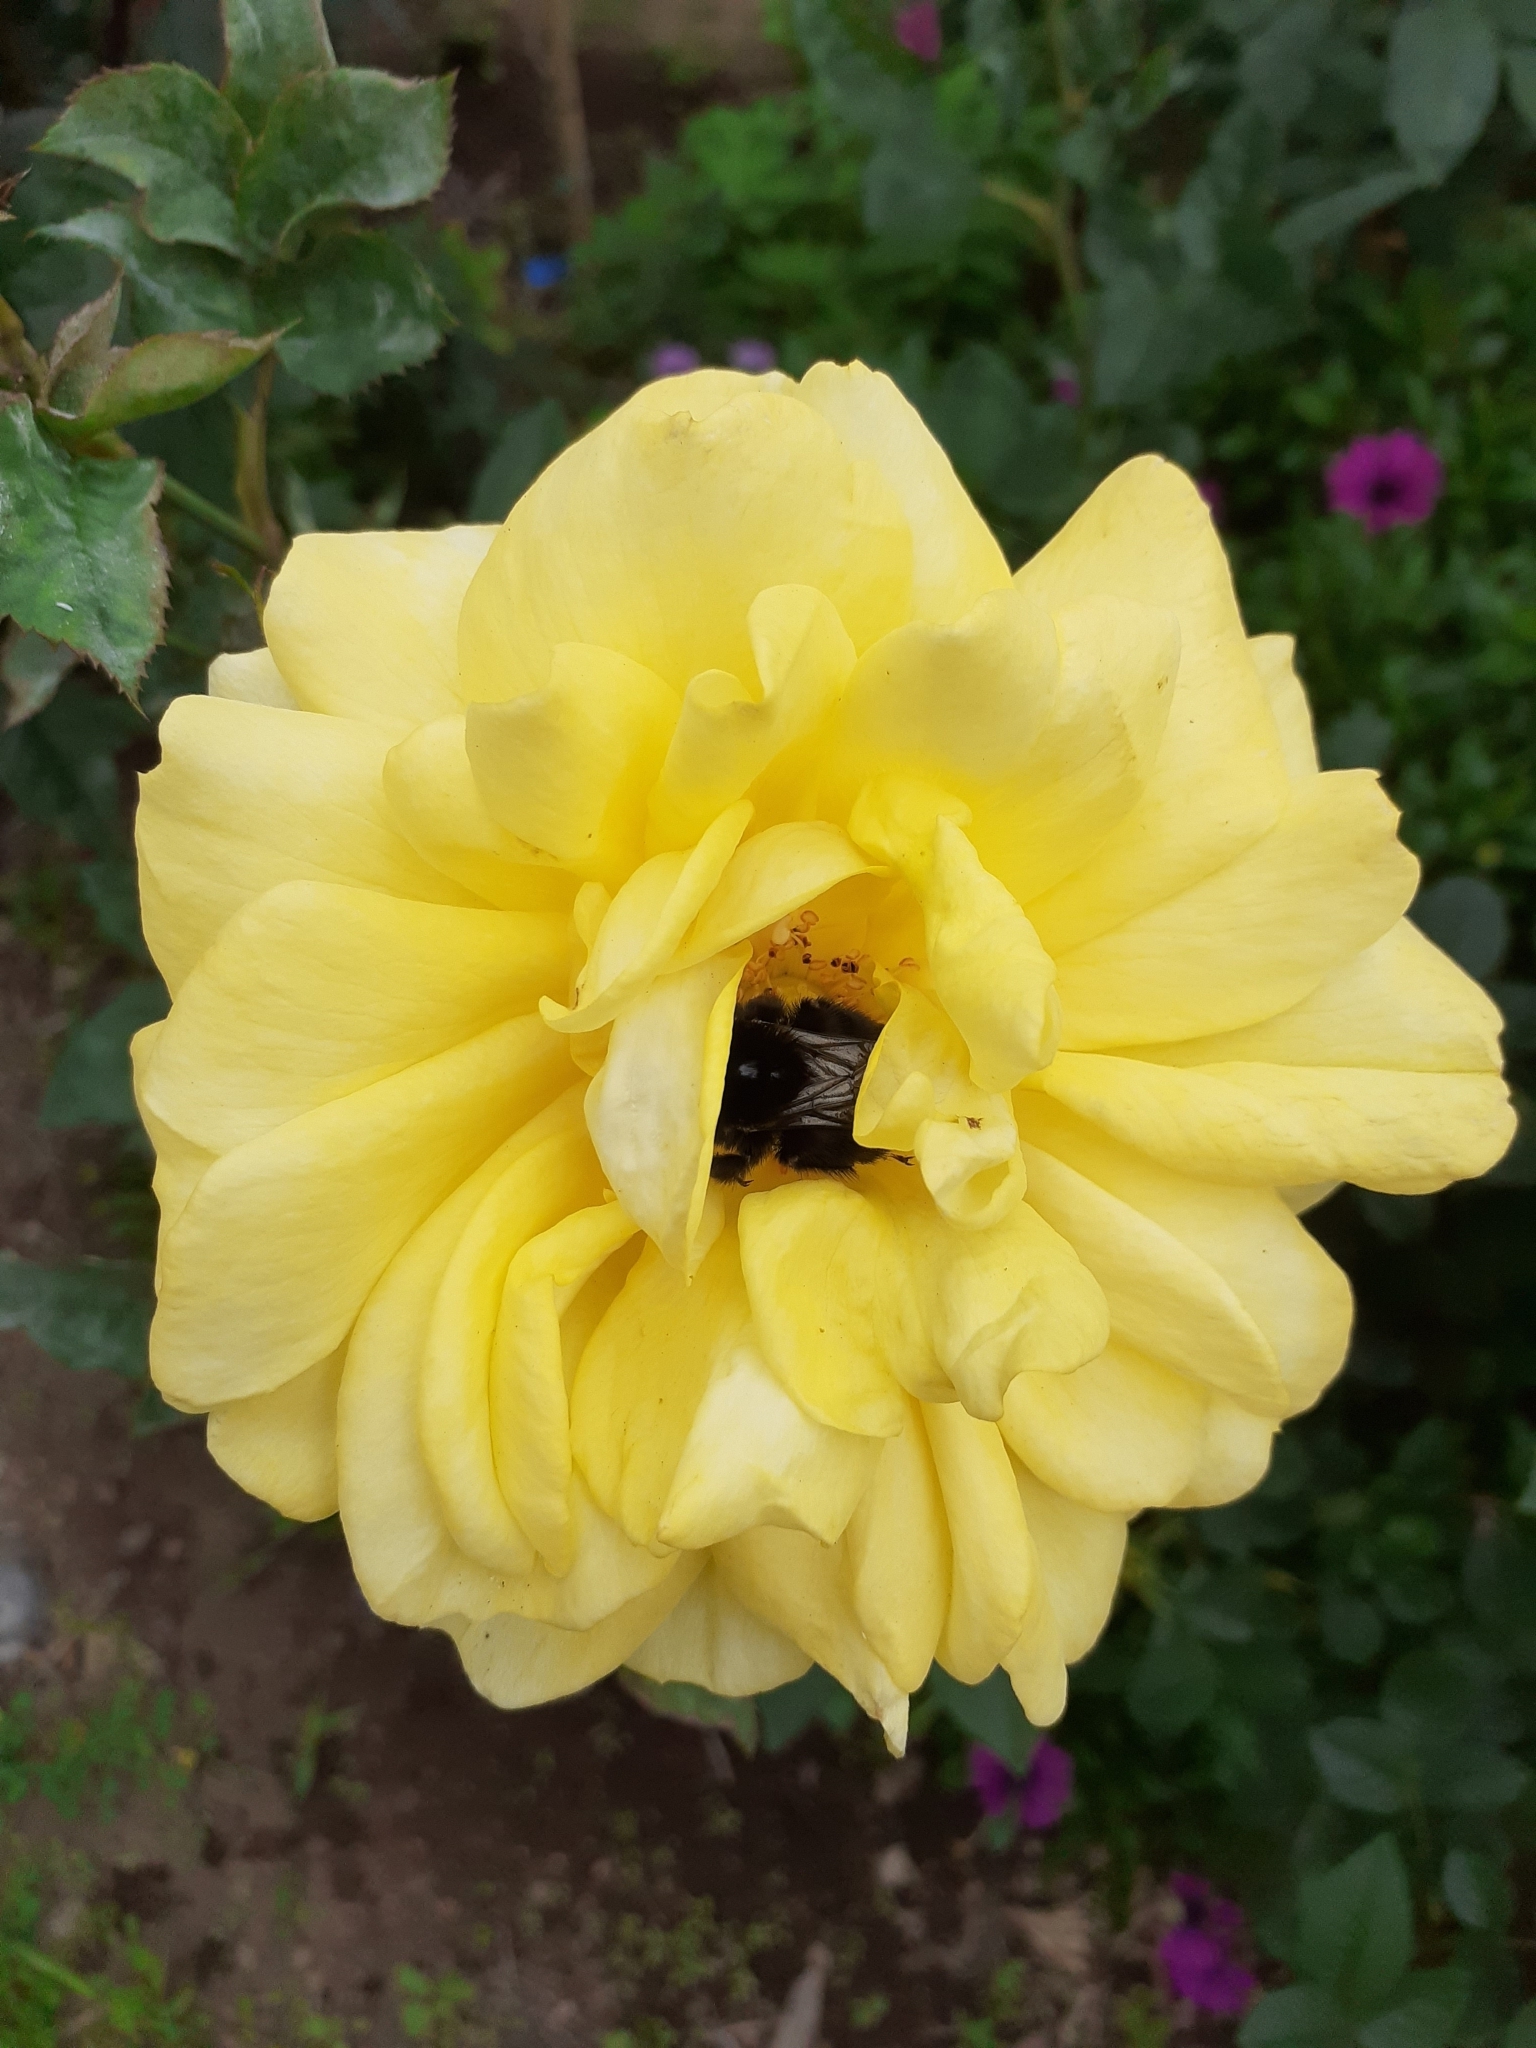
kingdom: Animalia
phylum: Arthropoda
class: Insecta
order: Hymenoptera
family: Apidae
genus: Bombus
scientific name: Bombus terrestris
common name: Buff-tailed bumblebee
